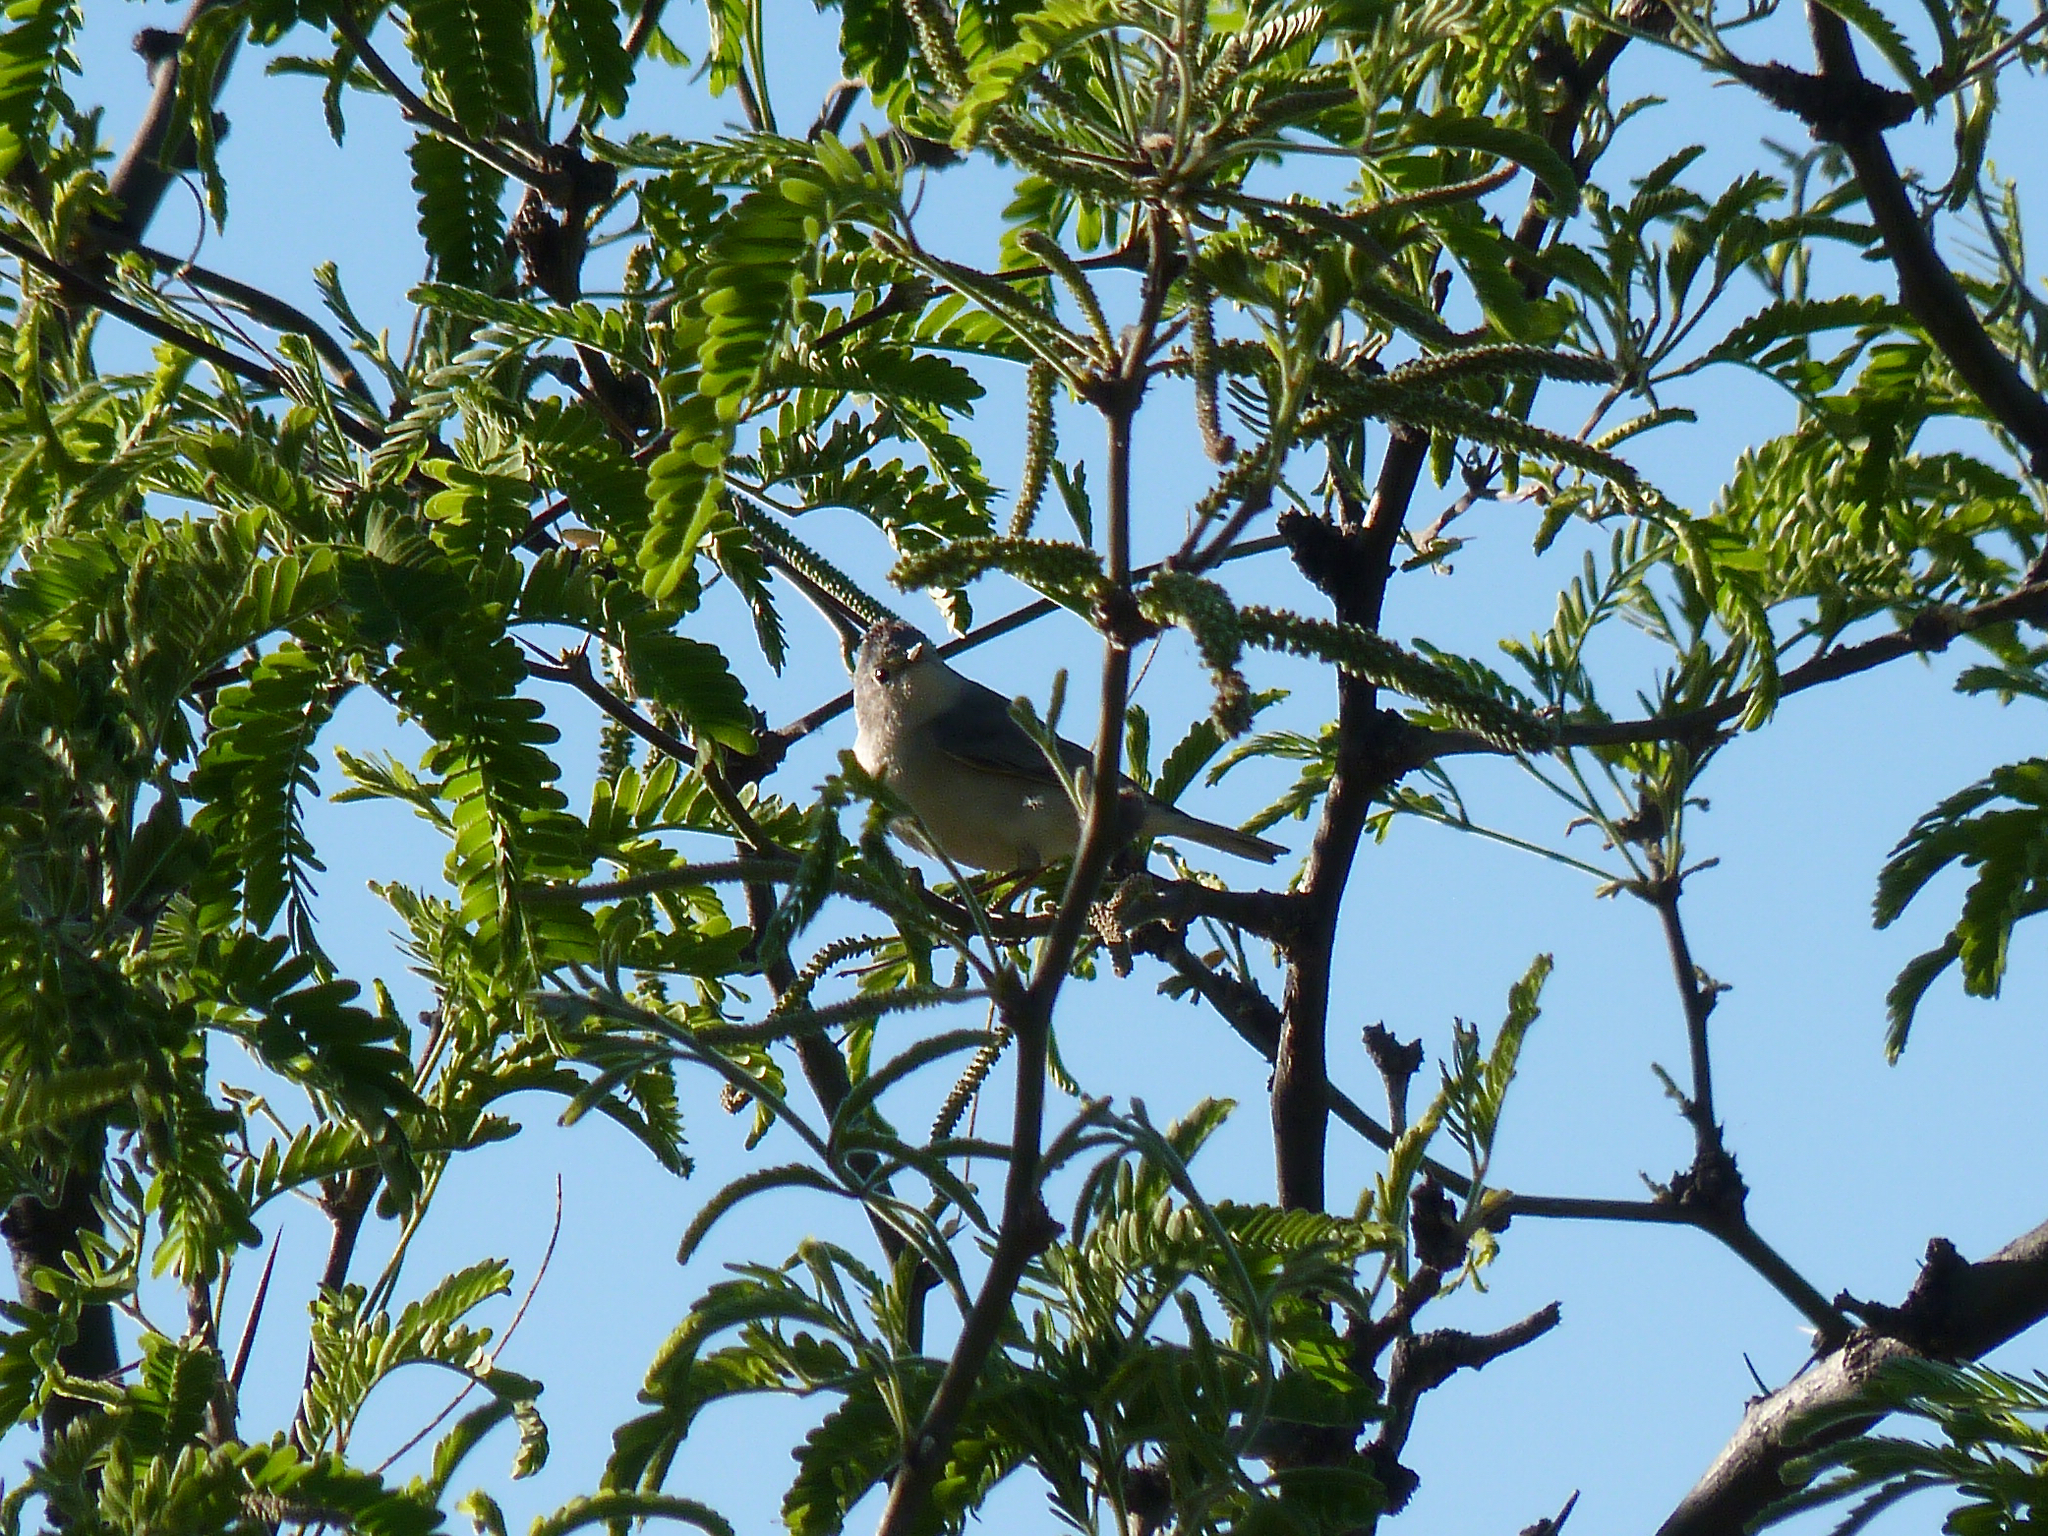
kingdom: Animalia
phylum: Chordata
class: Aves
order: Passeriformes
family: Parulidae
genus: Leiothlypis
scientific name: Leiothlypis luciae
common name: Lucy's warbler
